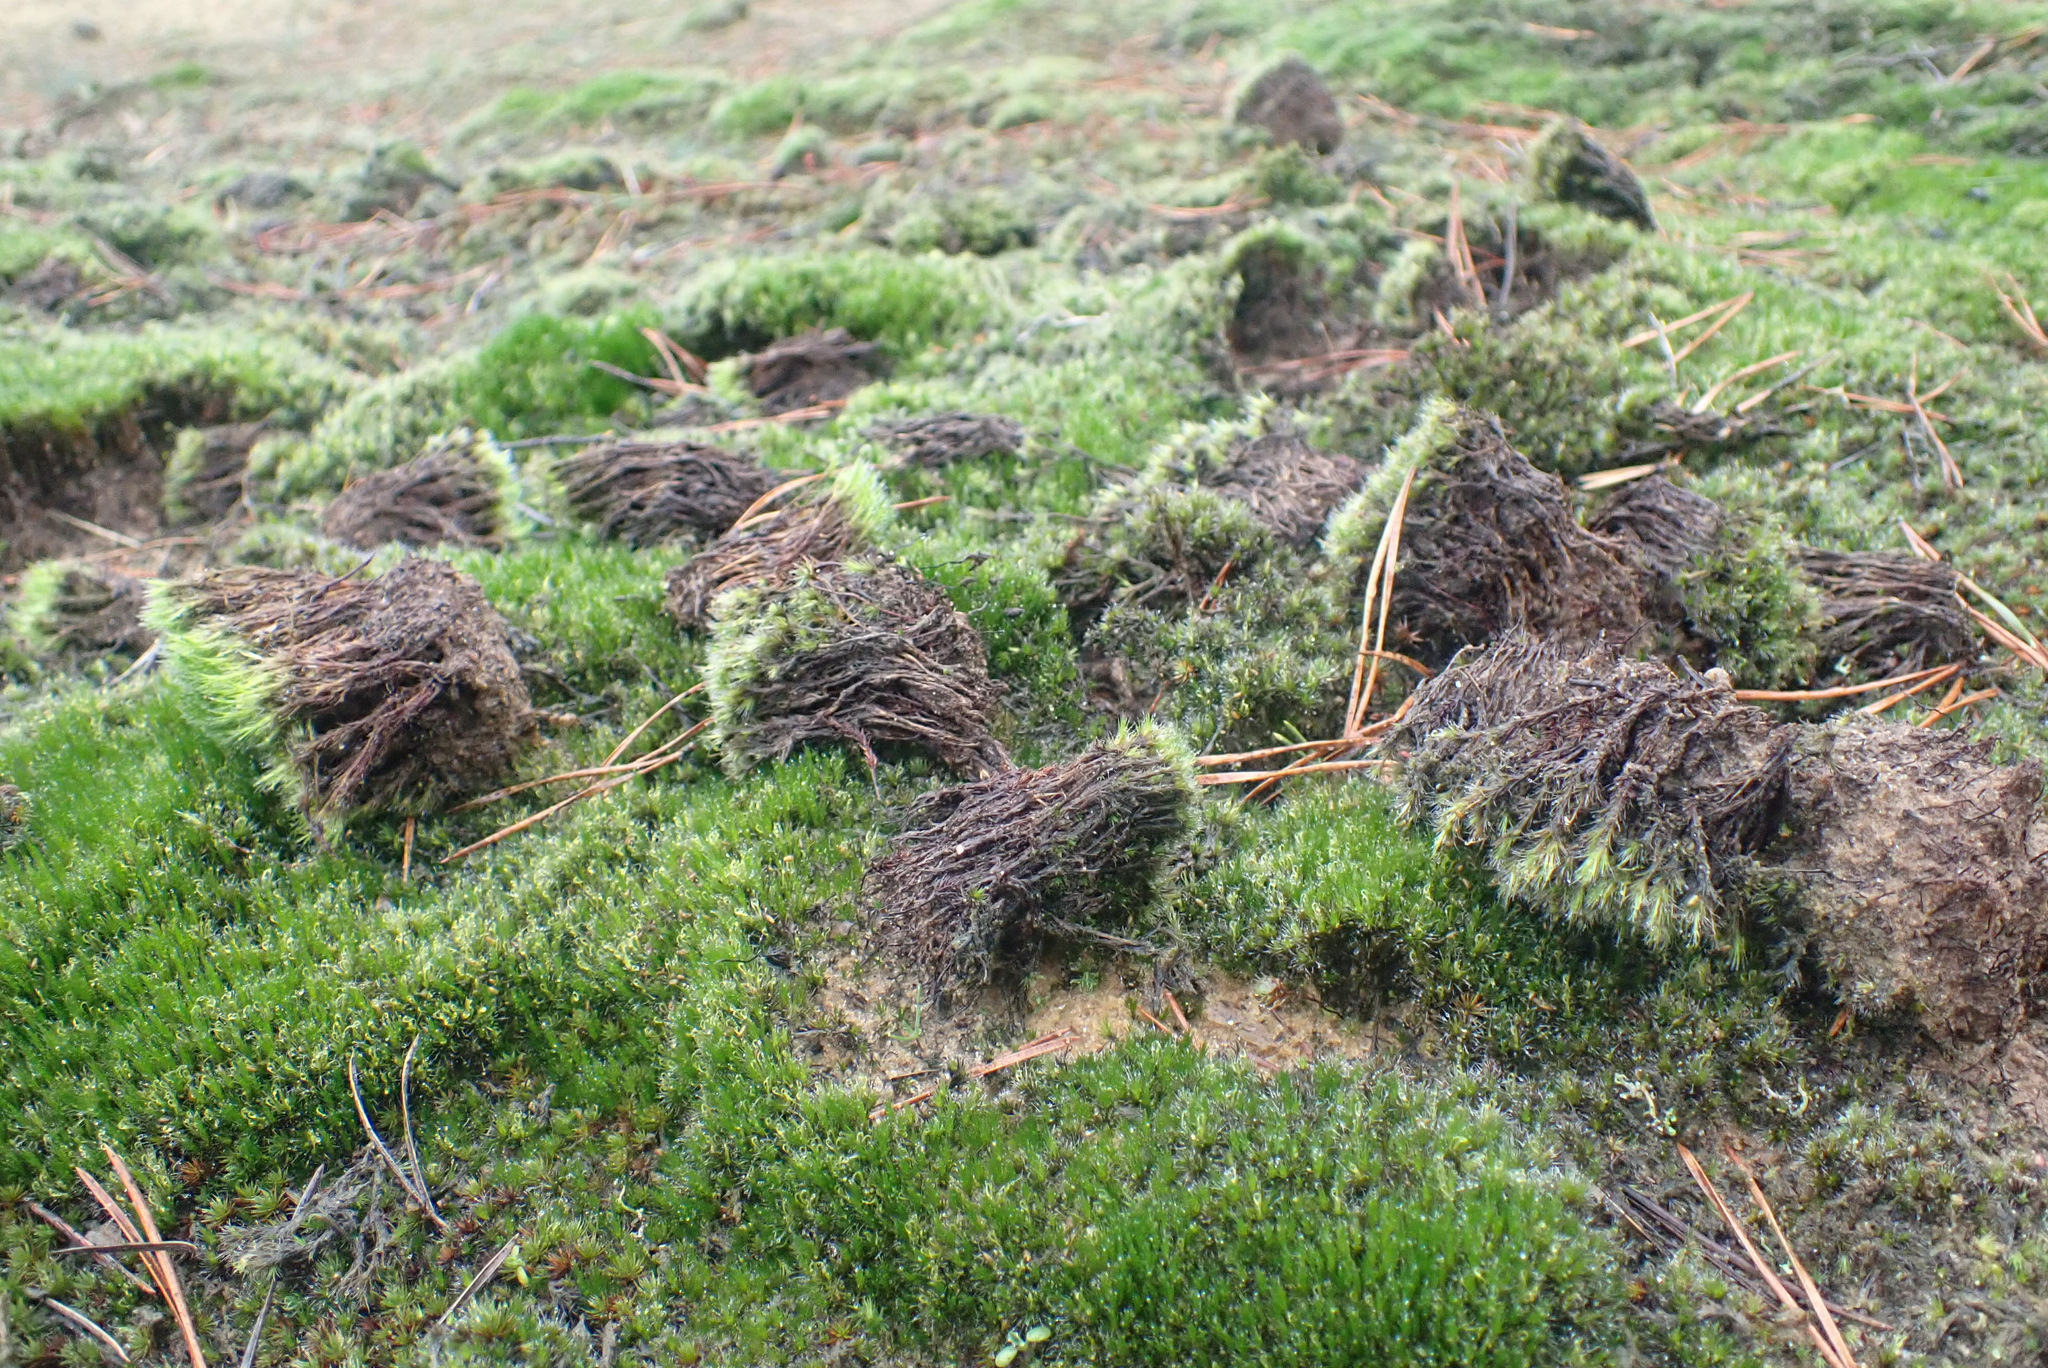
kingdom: Plantae
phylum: Bryophyta
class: Bryopsida
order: Dicranales
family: Leucobryaceae
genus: Campylopus
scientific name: Campylopus introflexus
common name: Heath star moss
